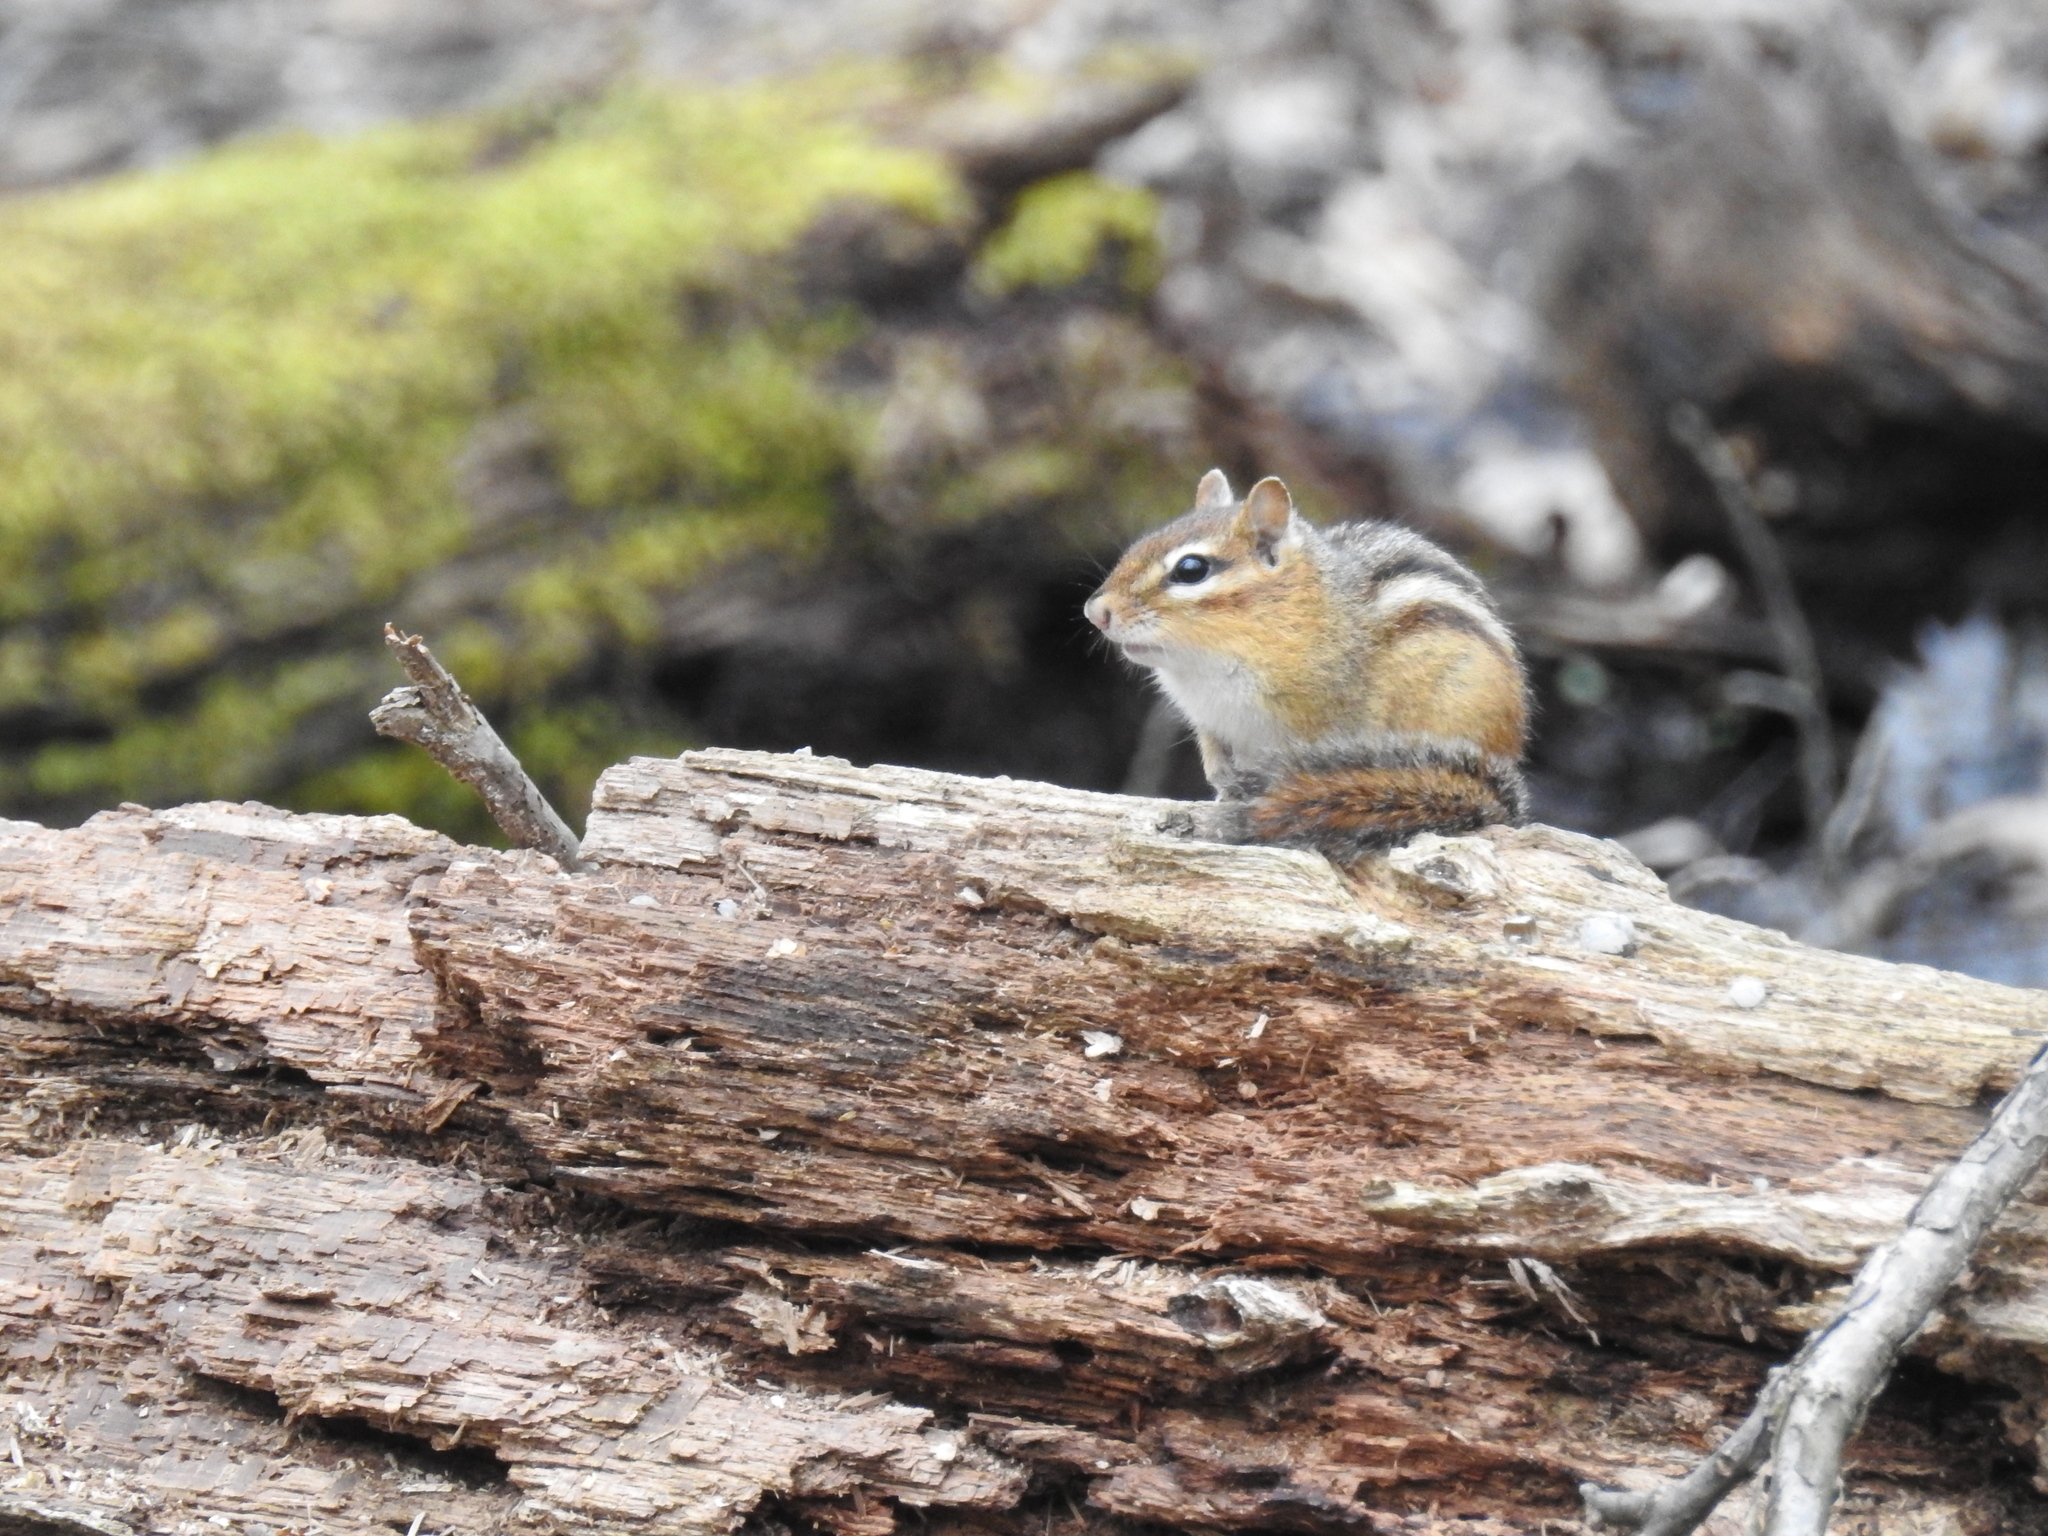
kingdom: Animalia
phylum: Chordata
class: Mammalia
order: Rodentia
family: Sciuridae
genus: Tamias
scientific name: Tamias striatus
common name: Eastern chipmunk
